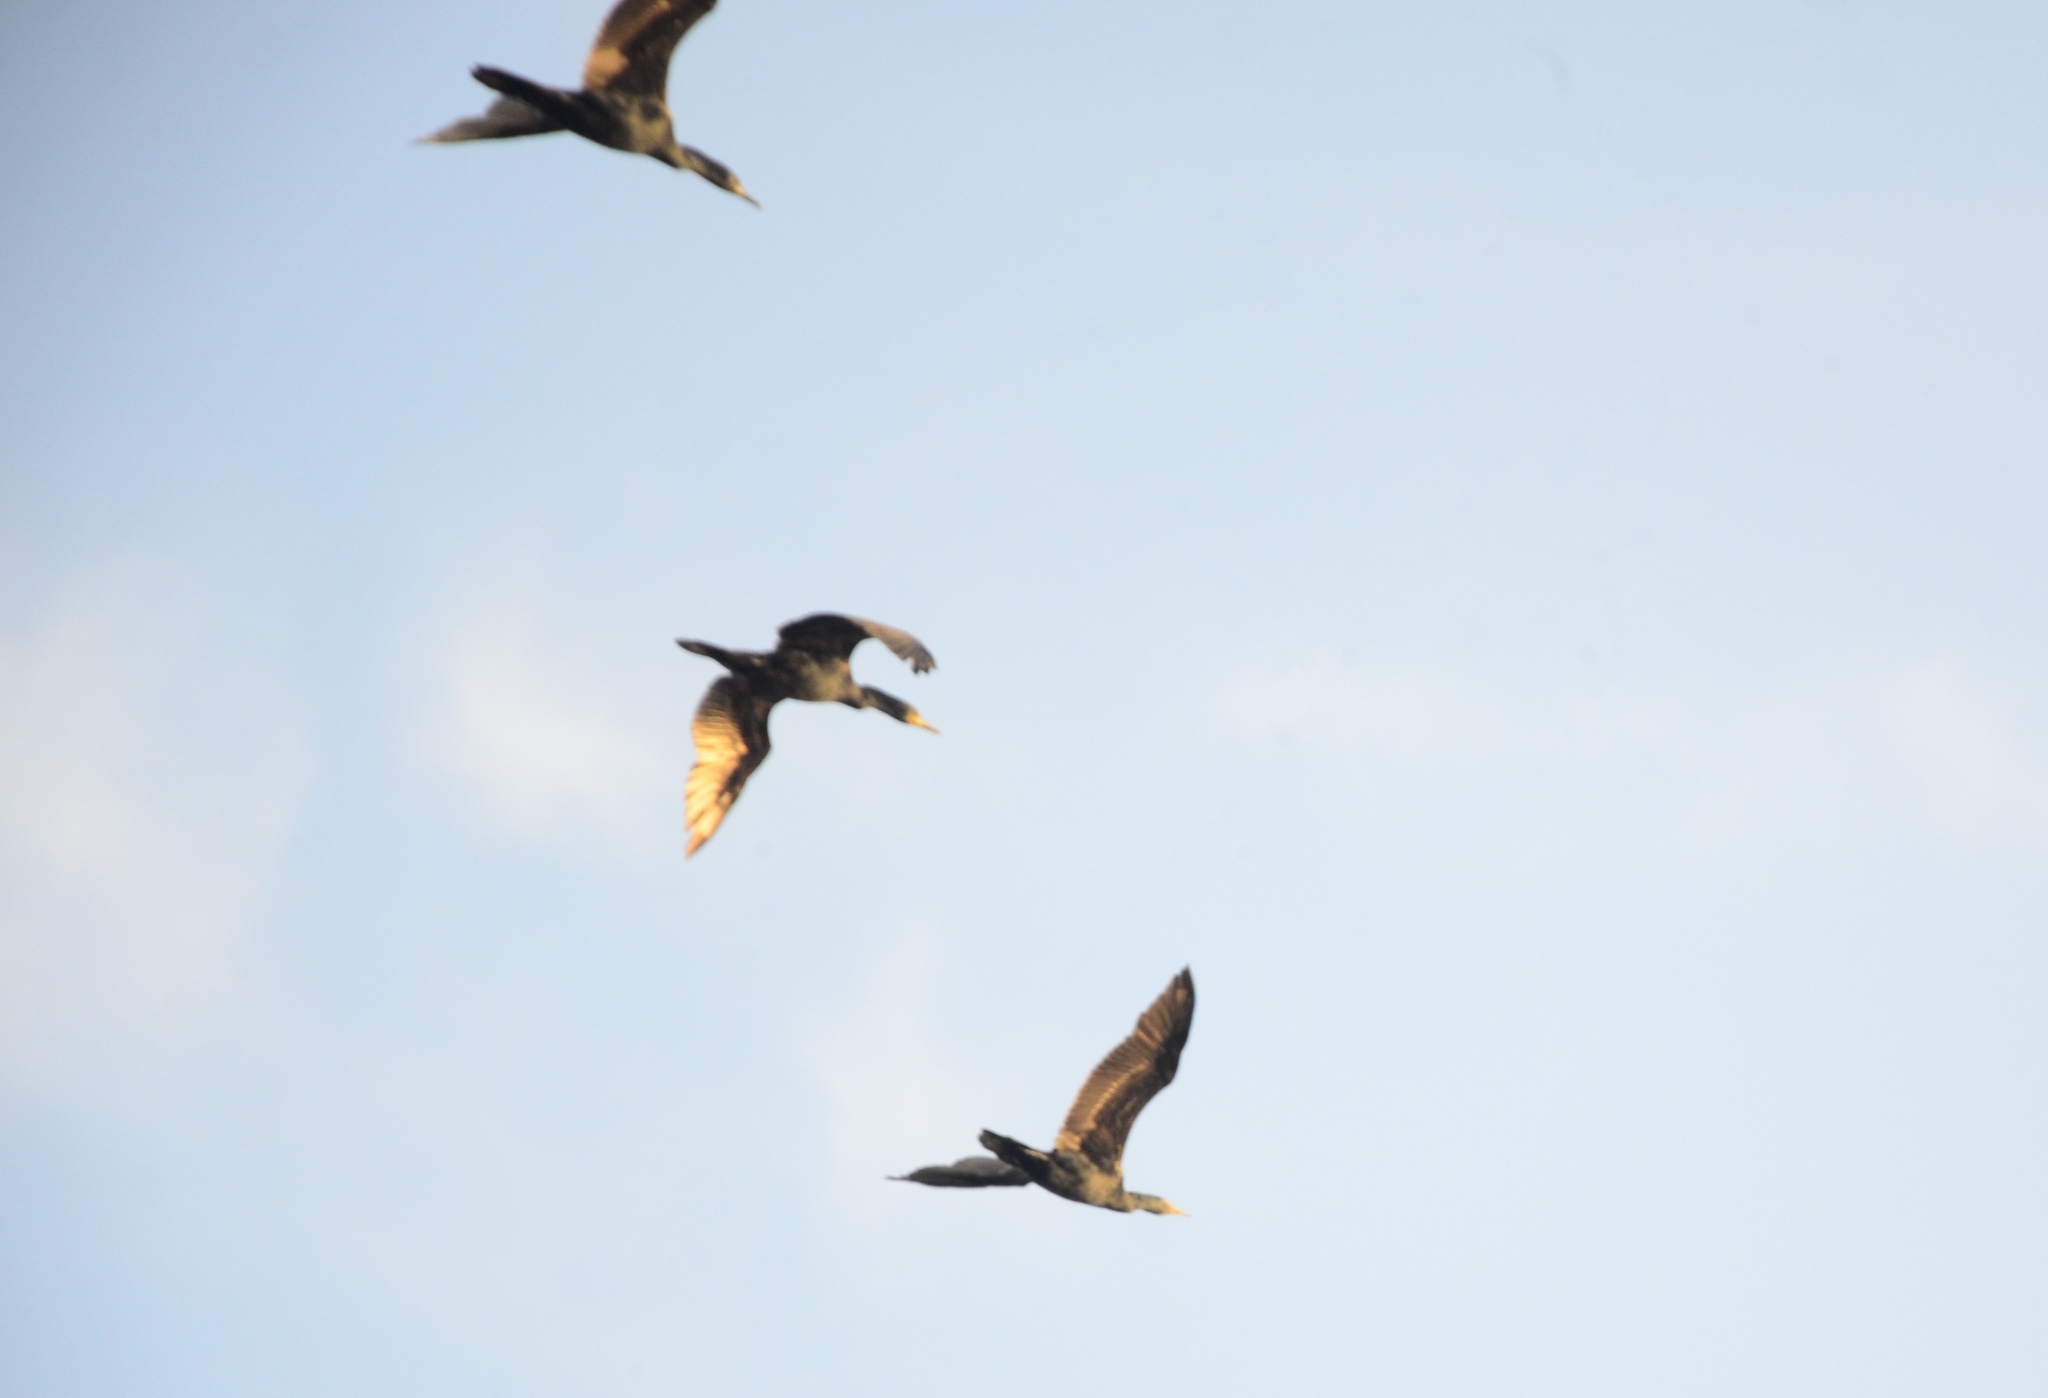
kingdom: Animalia
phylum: Chordata
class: Aves
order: Suliformes
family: Phalacrocoracidae
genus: Phalacrocorax
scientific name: Phalacrocorax fuscicollis
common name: Indian cormorant
